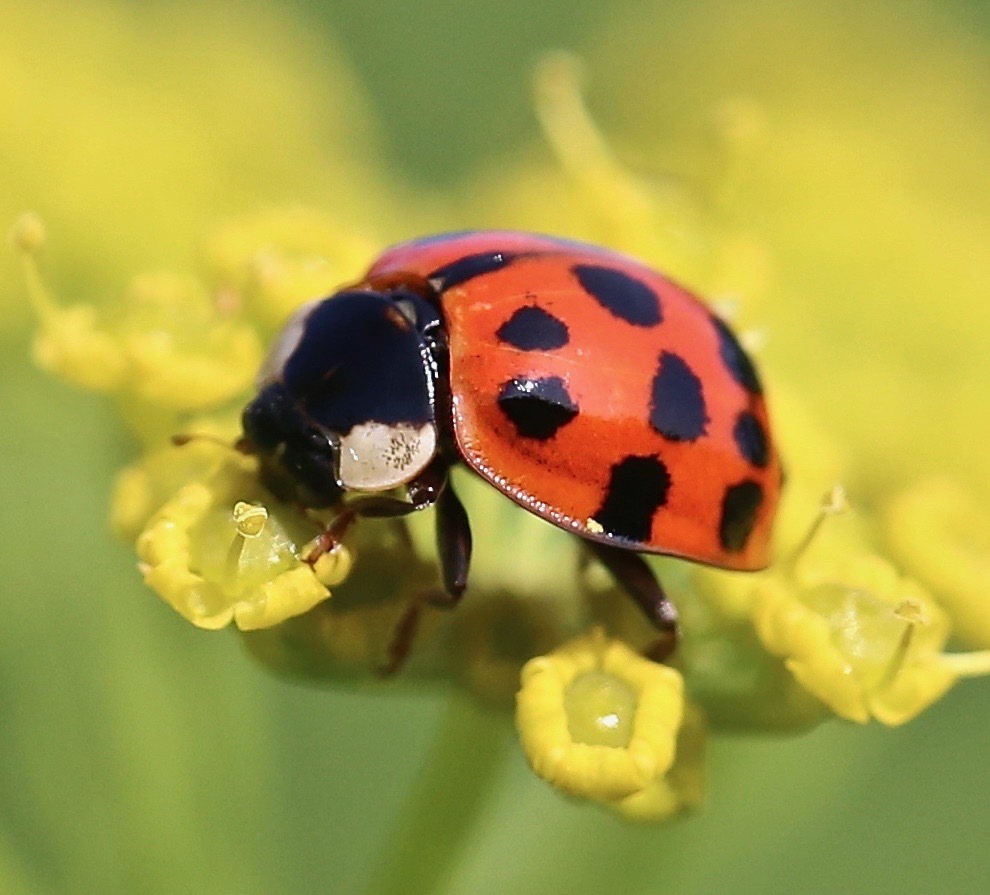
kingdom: Animalia
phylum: Arthropoda
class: Insecta
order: Coleoptera
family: Coccinellidae
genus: Harmonia
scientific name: Harmonia axyridis
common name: Harlequin ladybird
